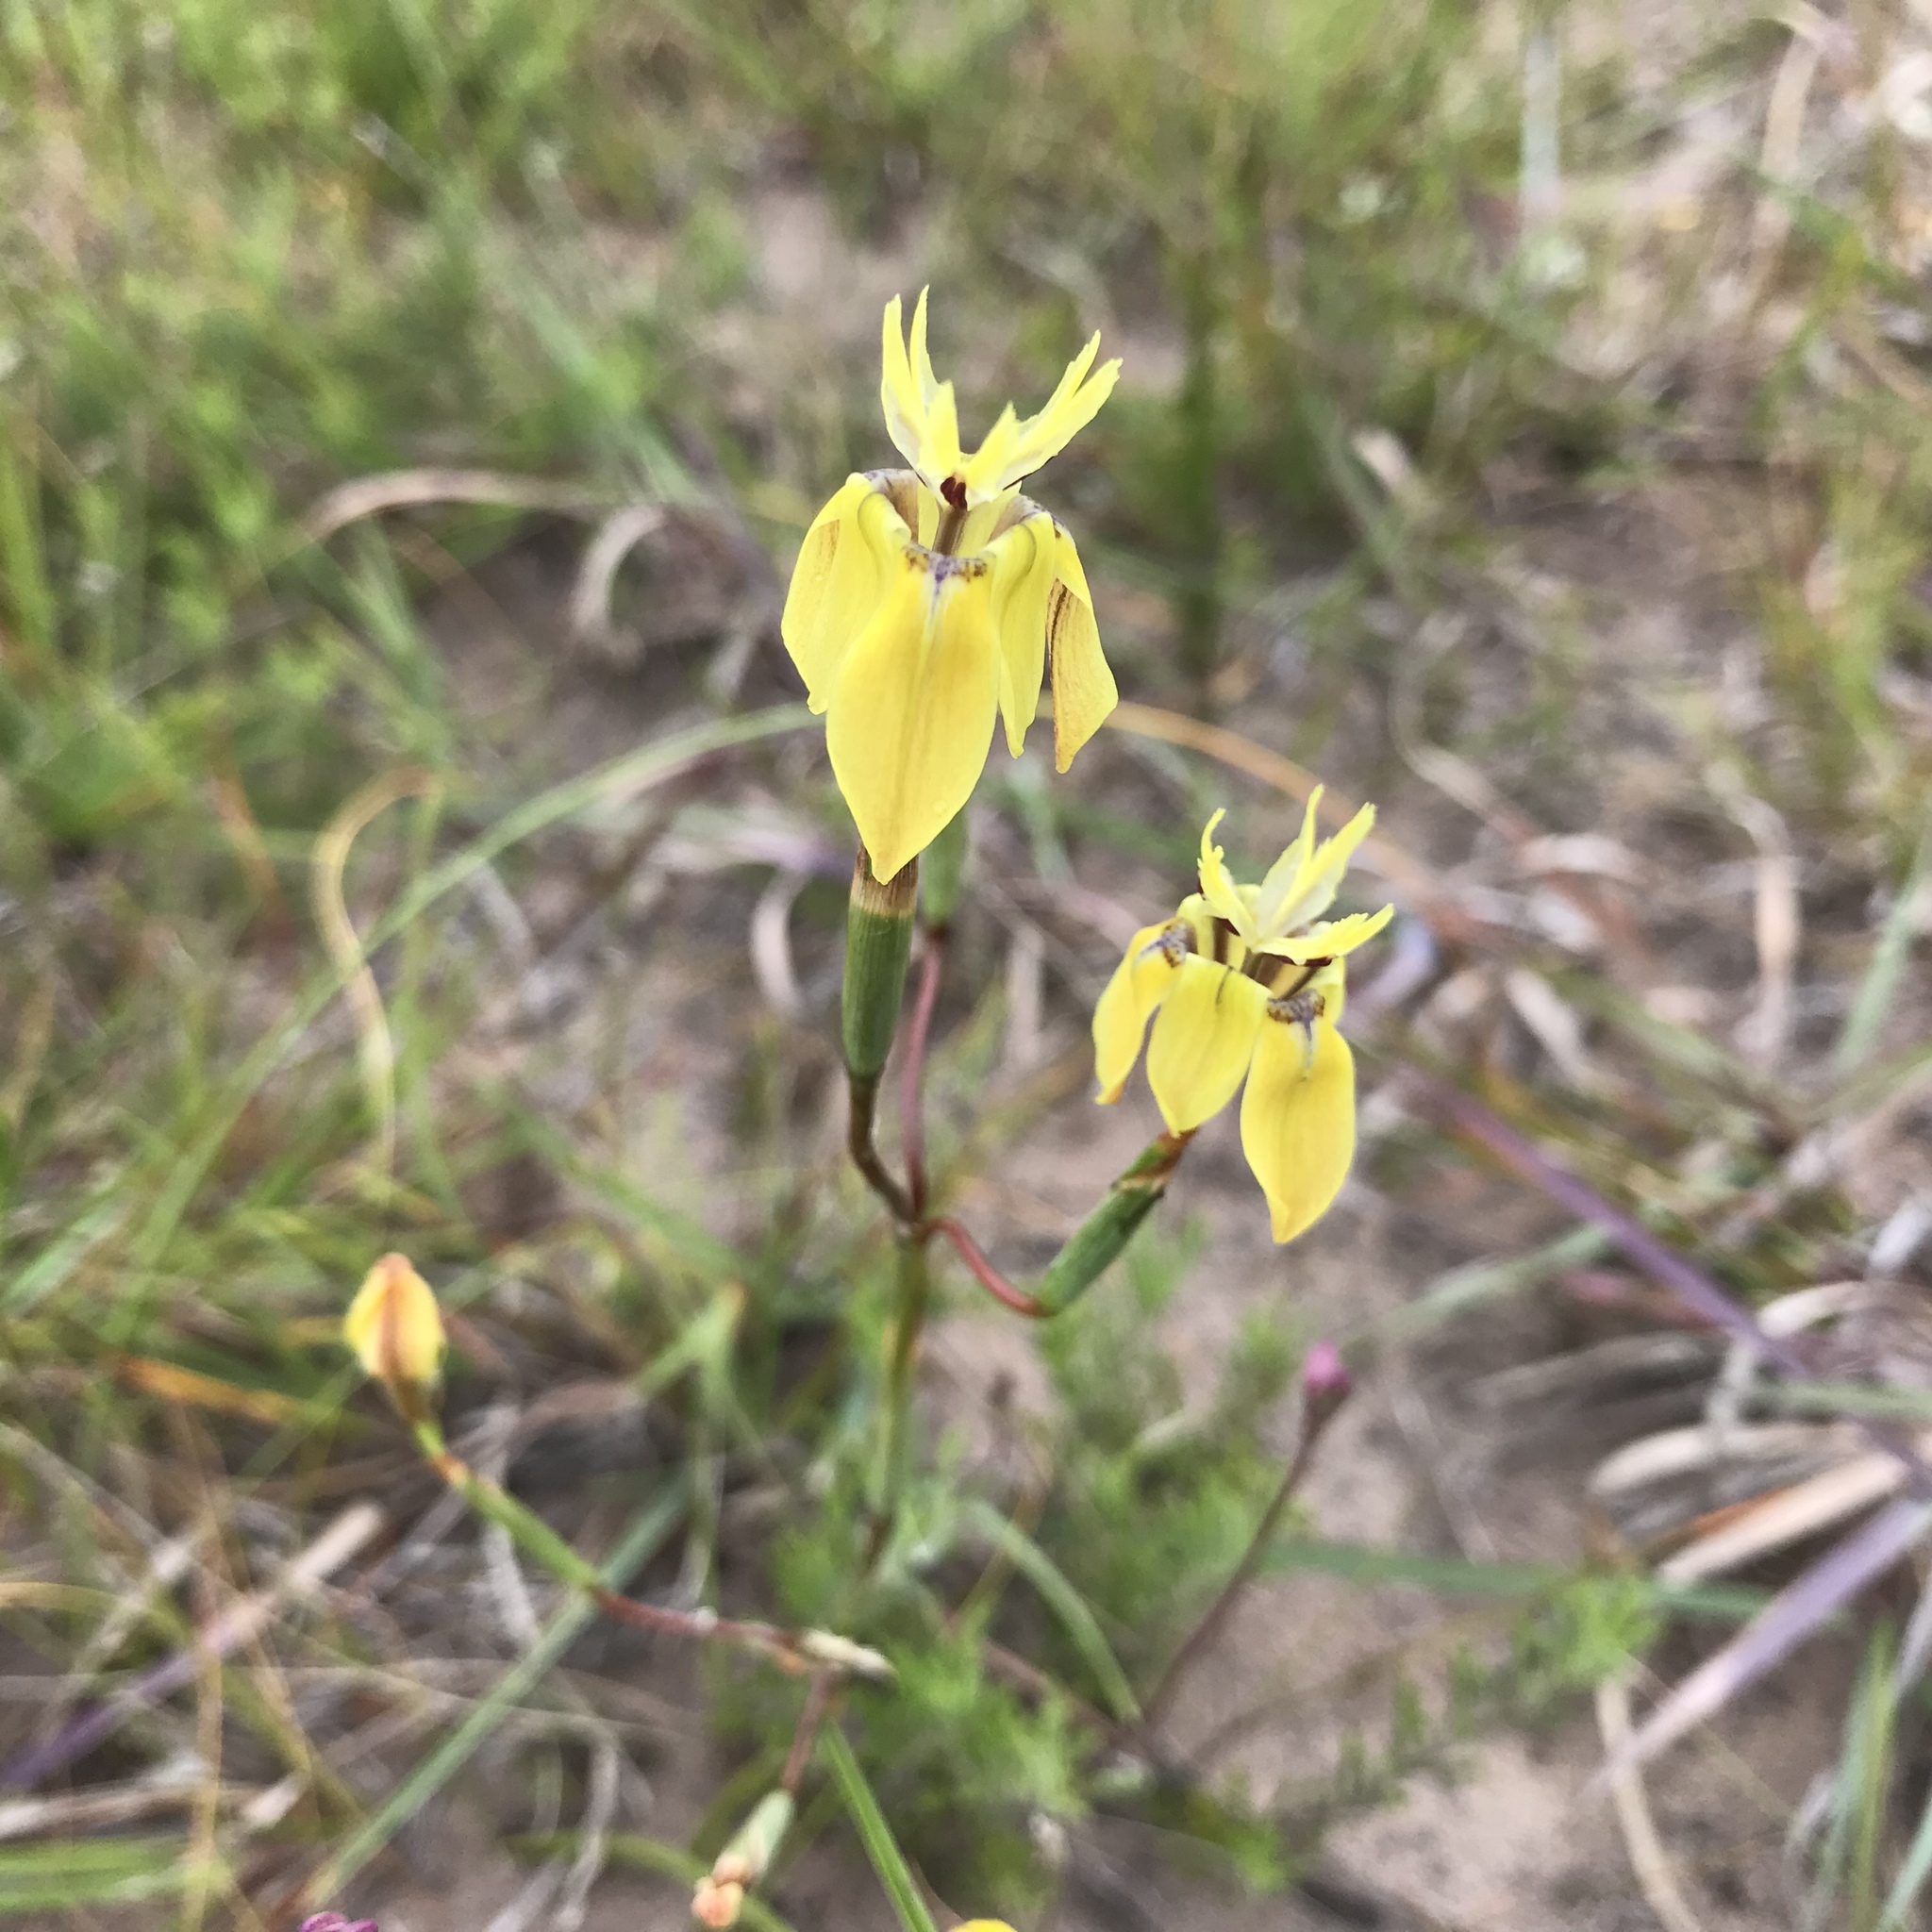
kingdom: Plantae
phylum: Tracheophyta
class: Liliopsida
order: Asparagales
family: Iridaceae
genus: Moraea
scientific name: Moraea inconspicua
